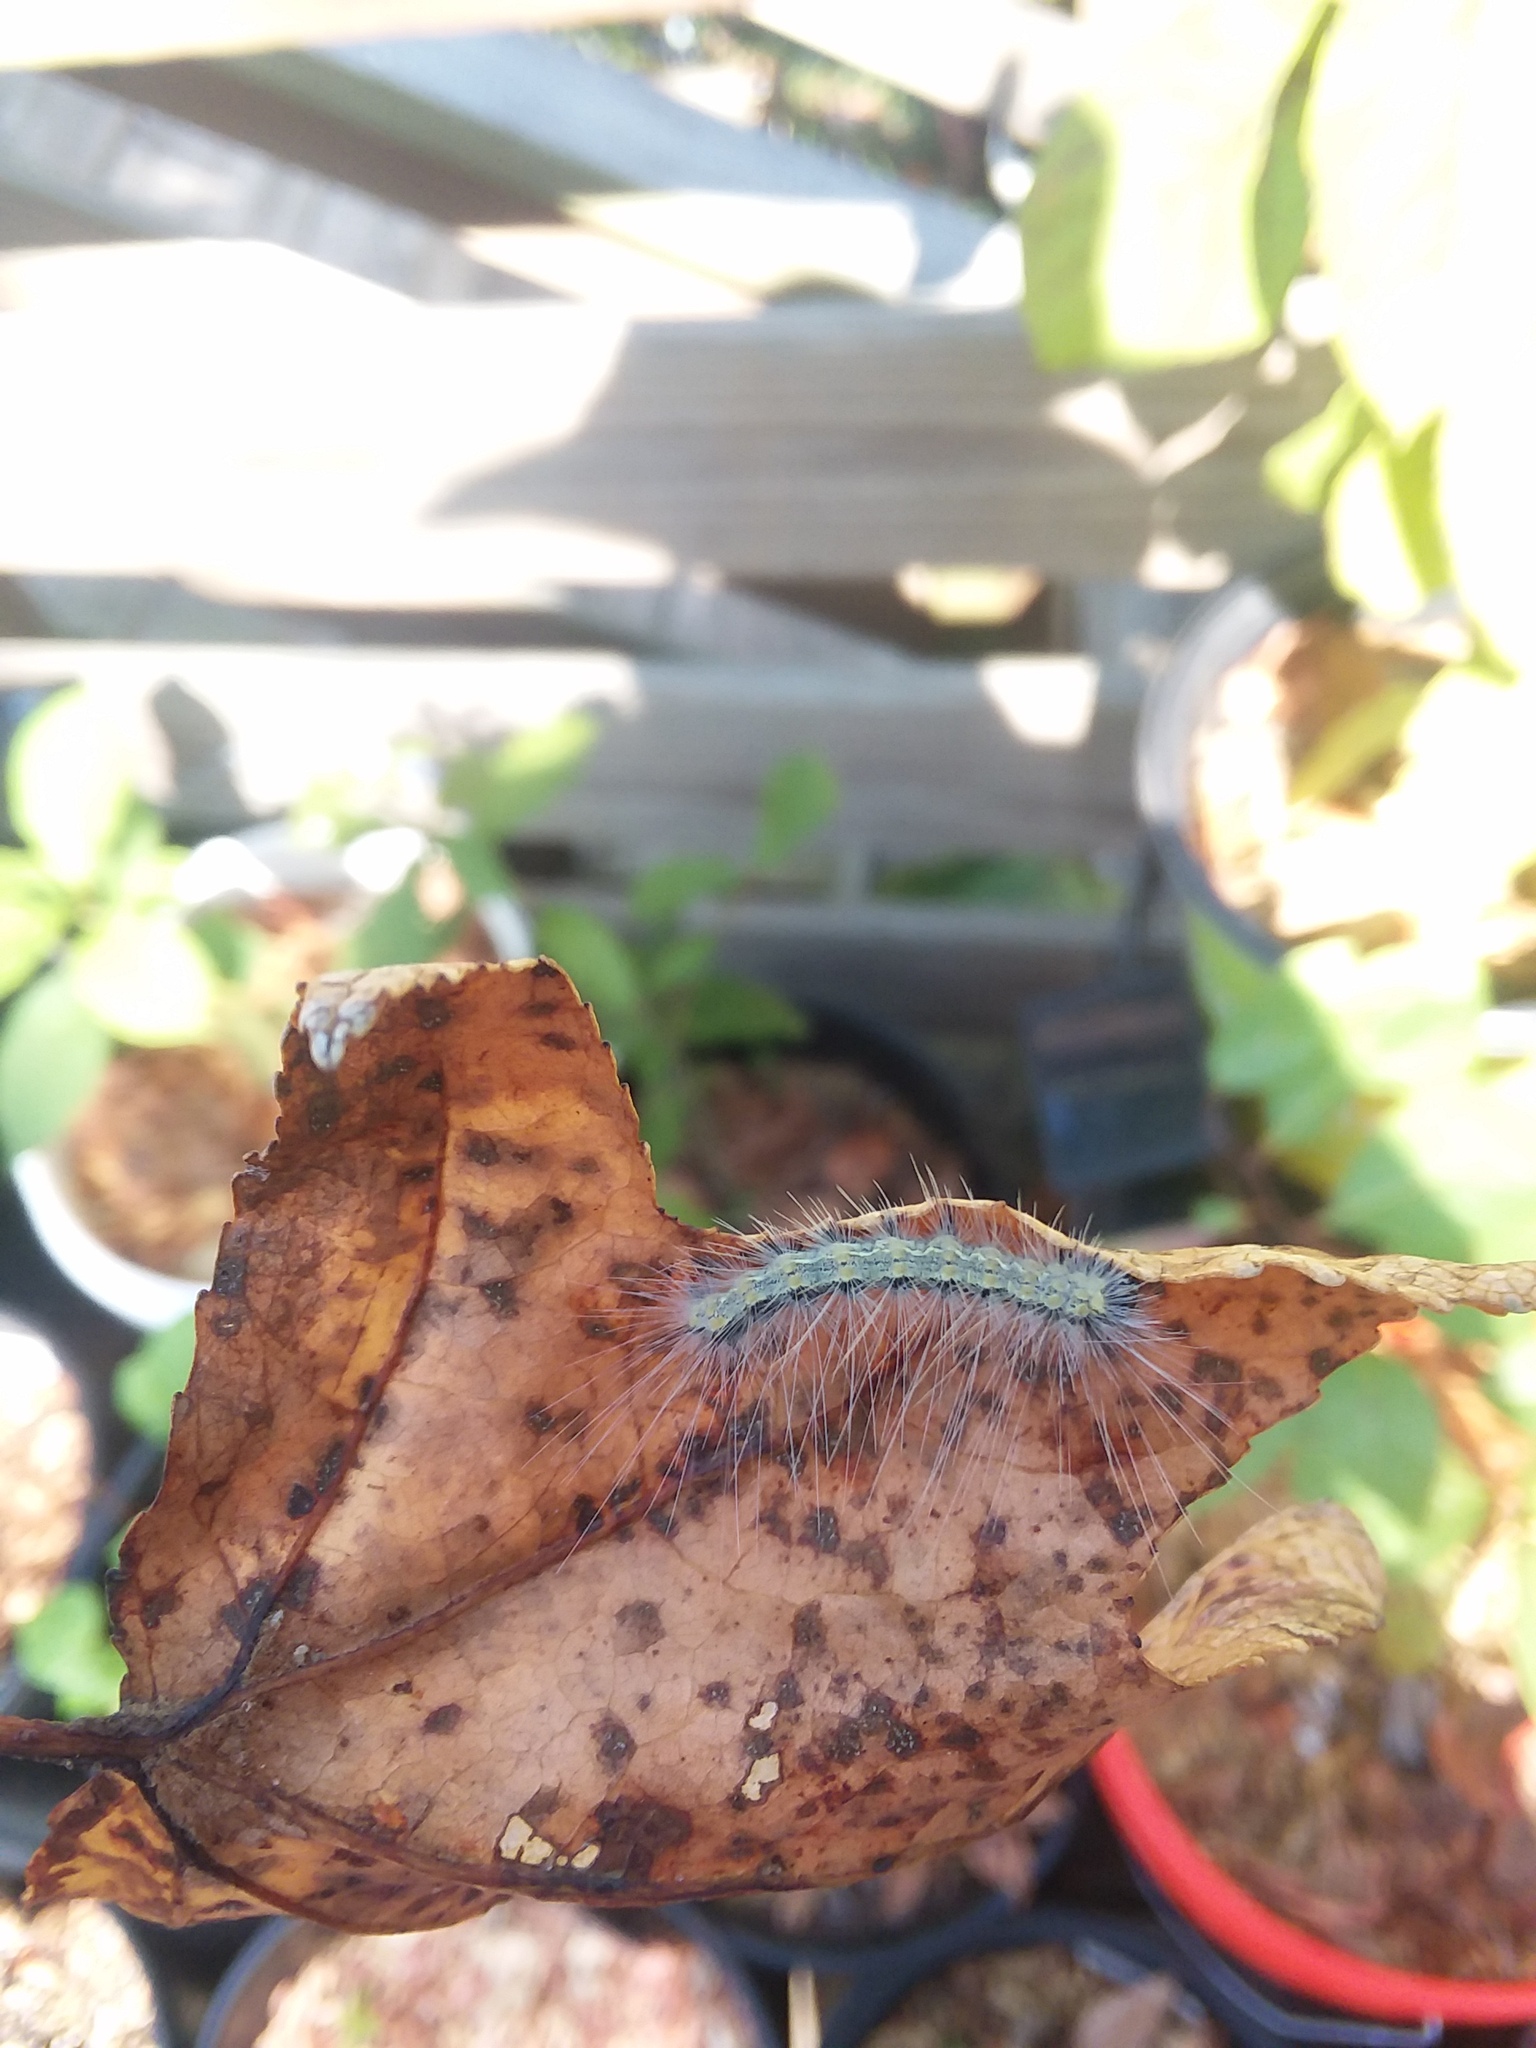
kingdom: Animalia
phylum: Arthropoda
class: Insecta
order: Lepidoptera
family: Erebidae
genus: Hyphantria
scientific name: Hyphantria cunea
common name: American white moth
